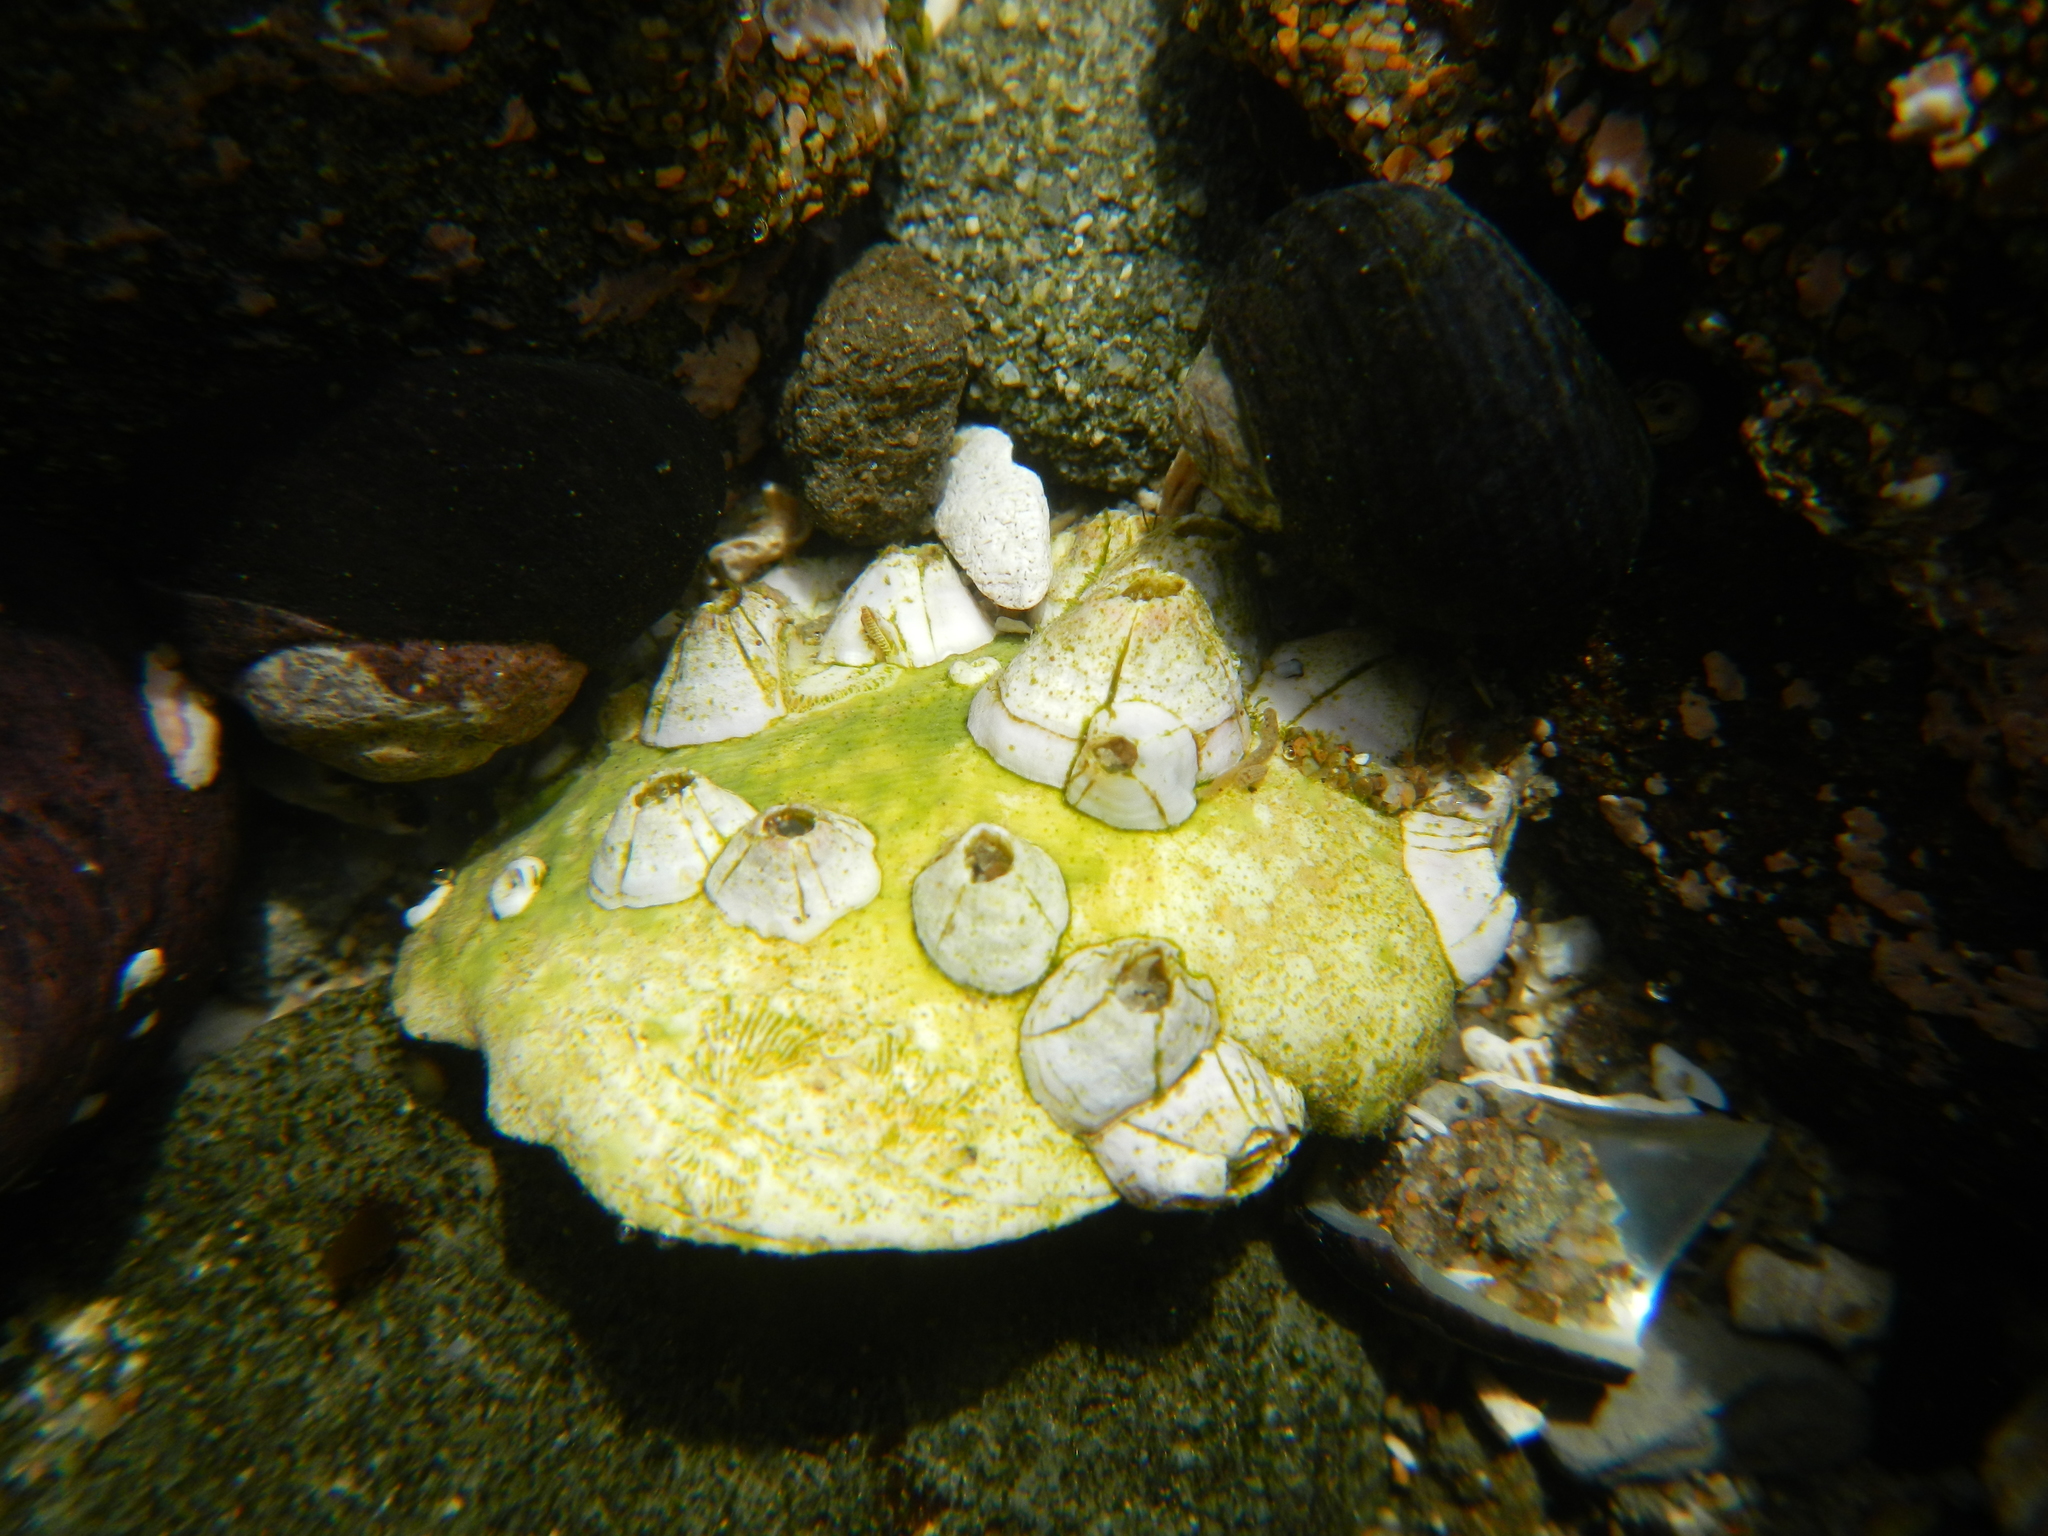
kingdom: Animalia
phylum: Arthropoda
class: Maxillopoda
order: Sessilia
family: Balanidae
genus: Balanus
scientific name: Balanus laevis
